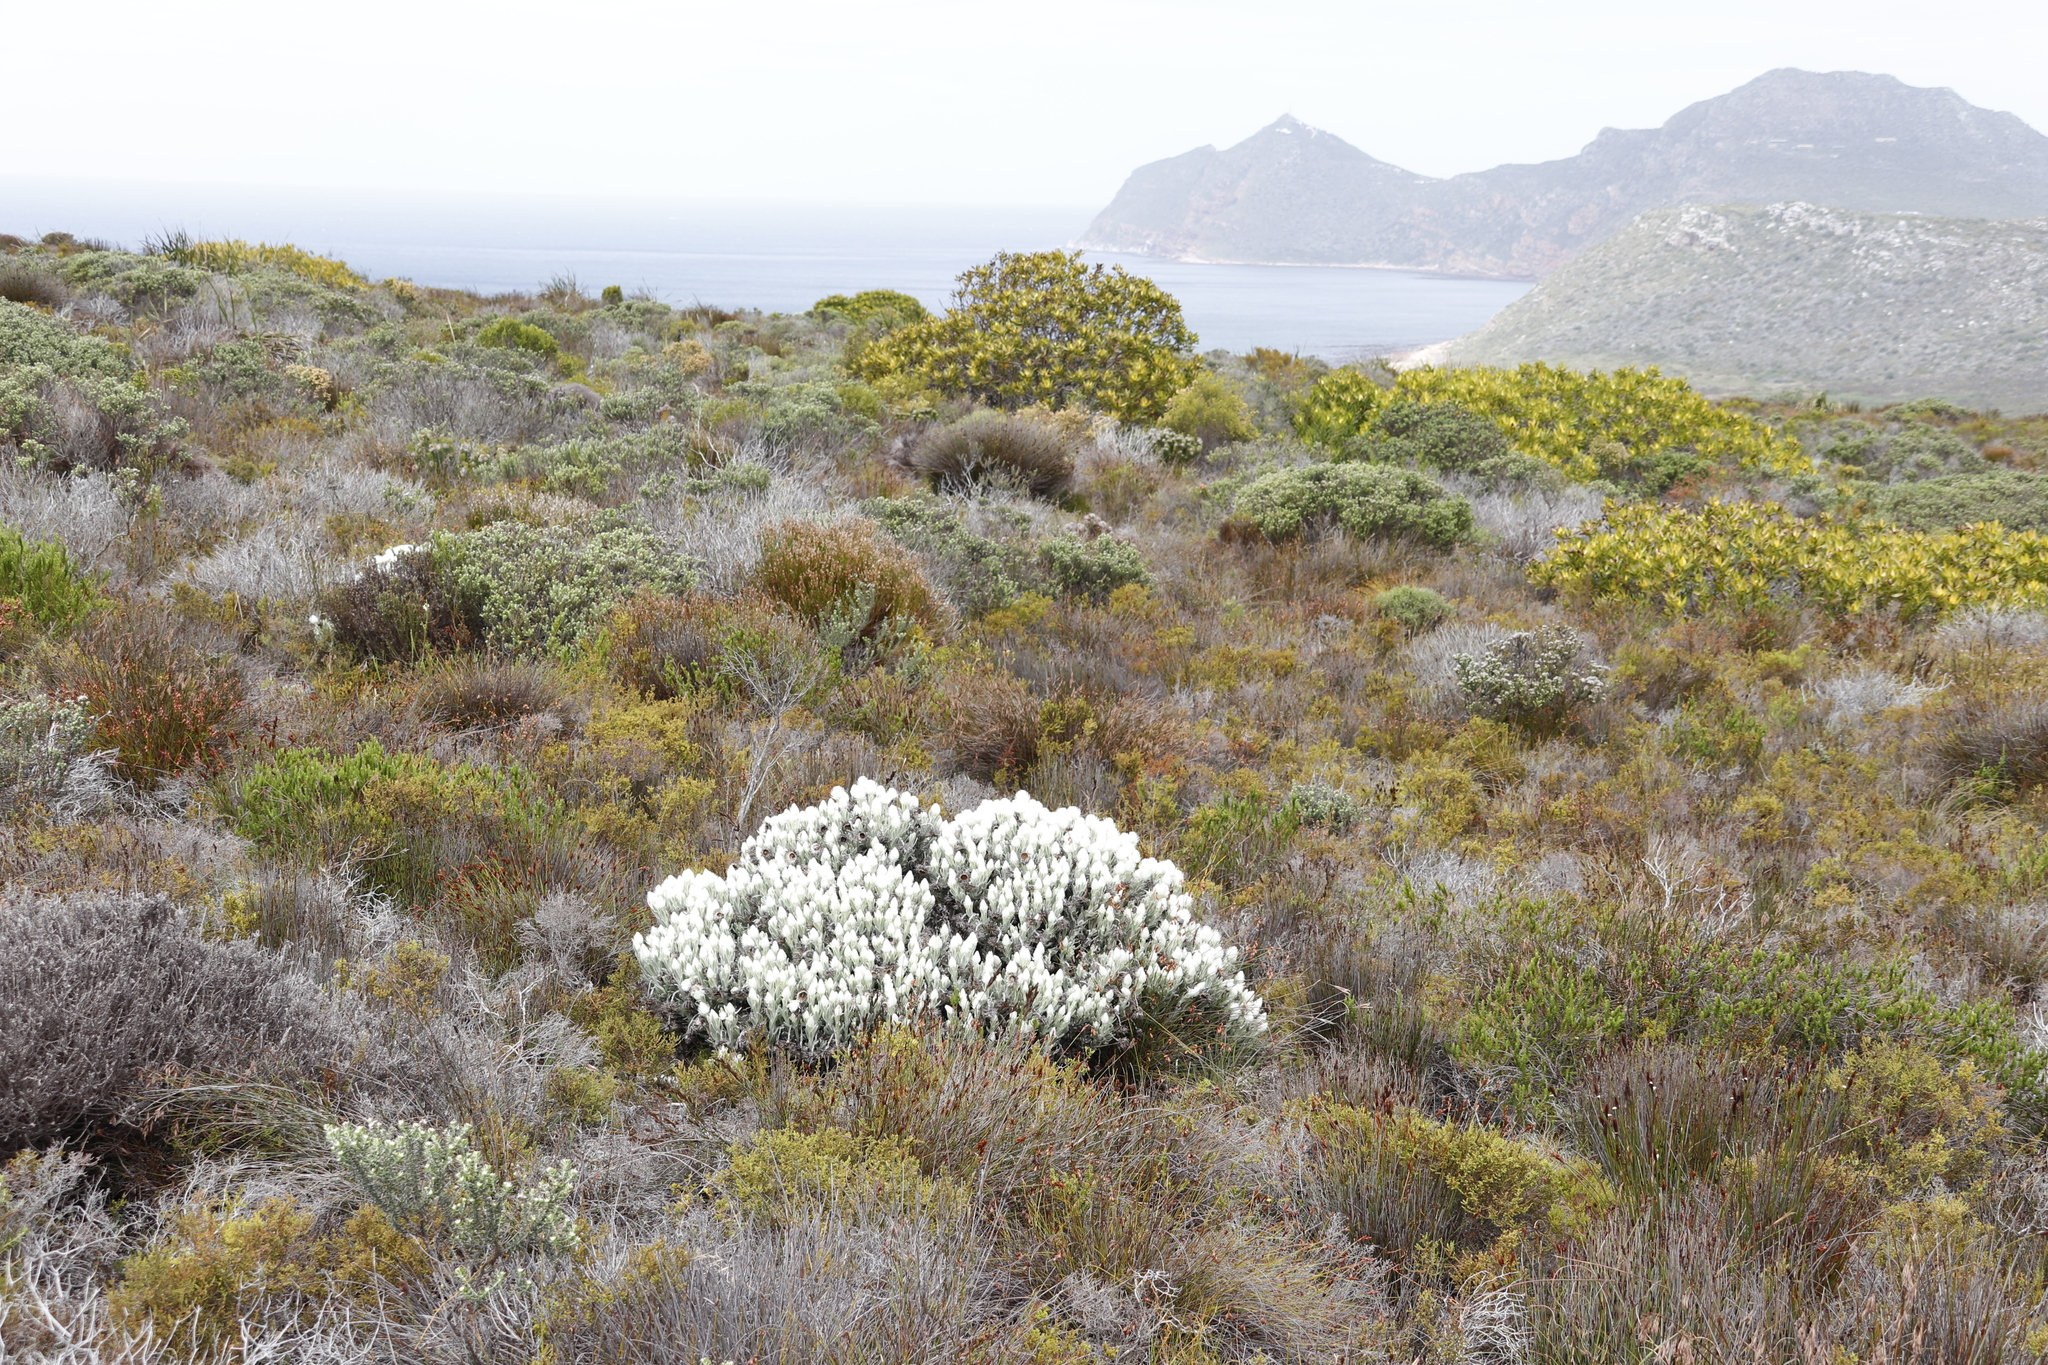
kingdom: Plantae
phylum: Tracheophyta
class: Magnoliopsida
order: Asterales
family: Asteraceae
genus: Syncarpha
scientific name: Syncarpha vestita
